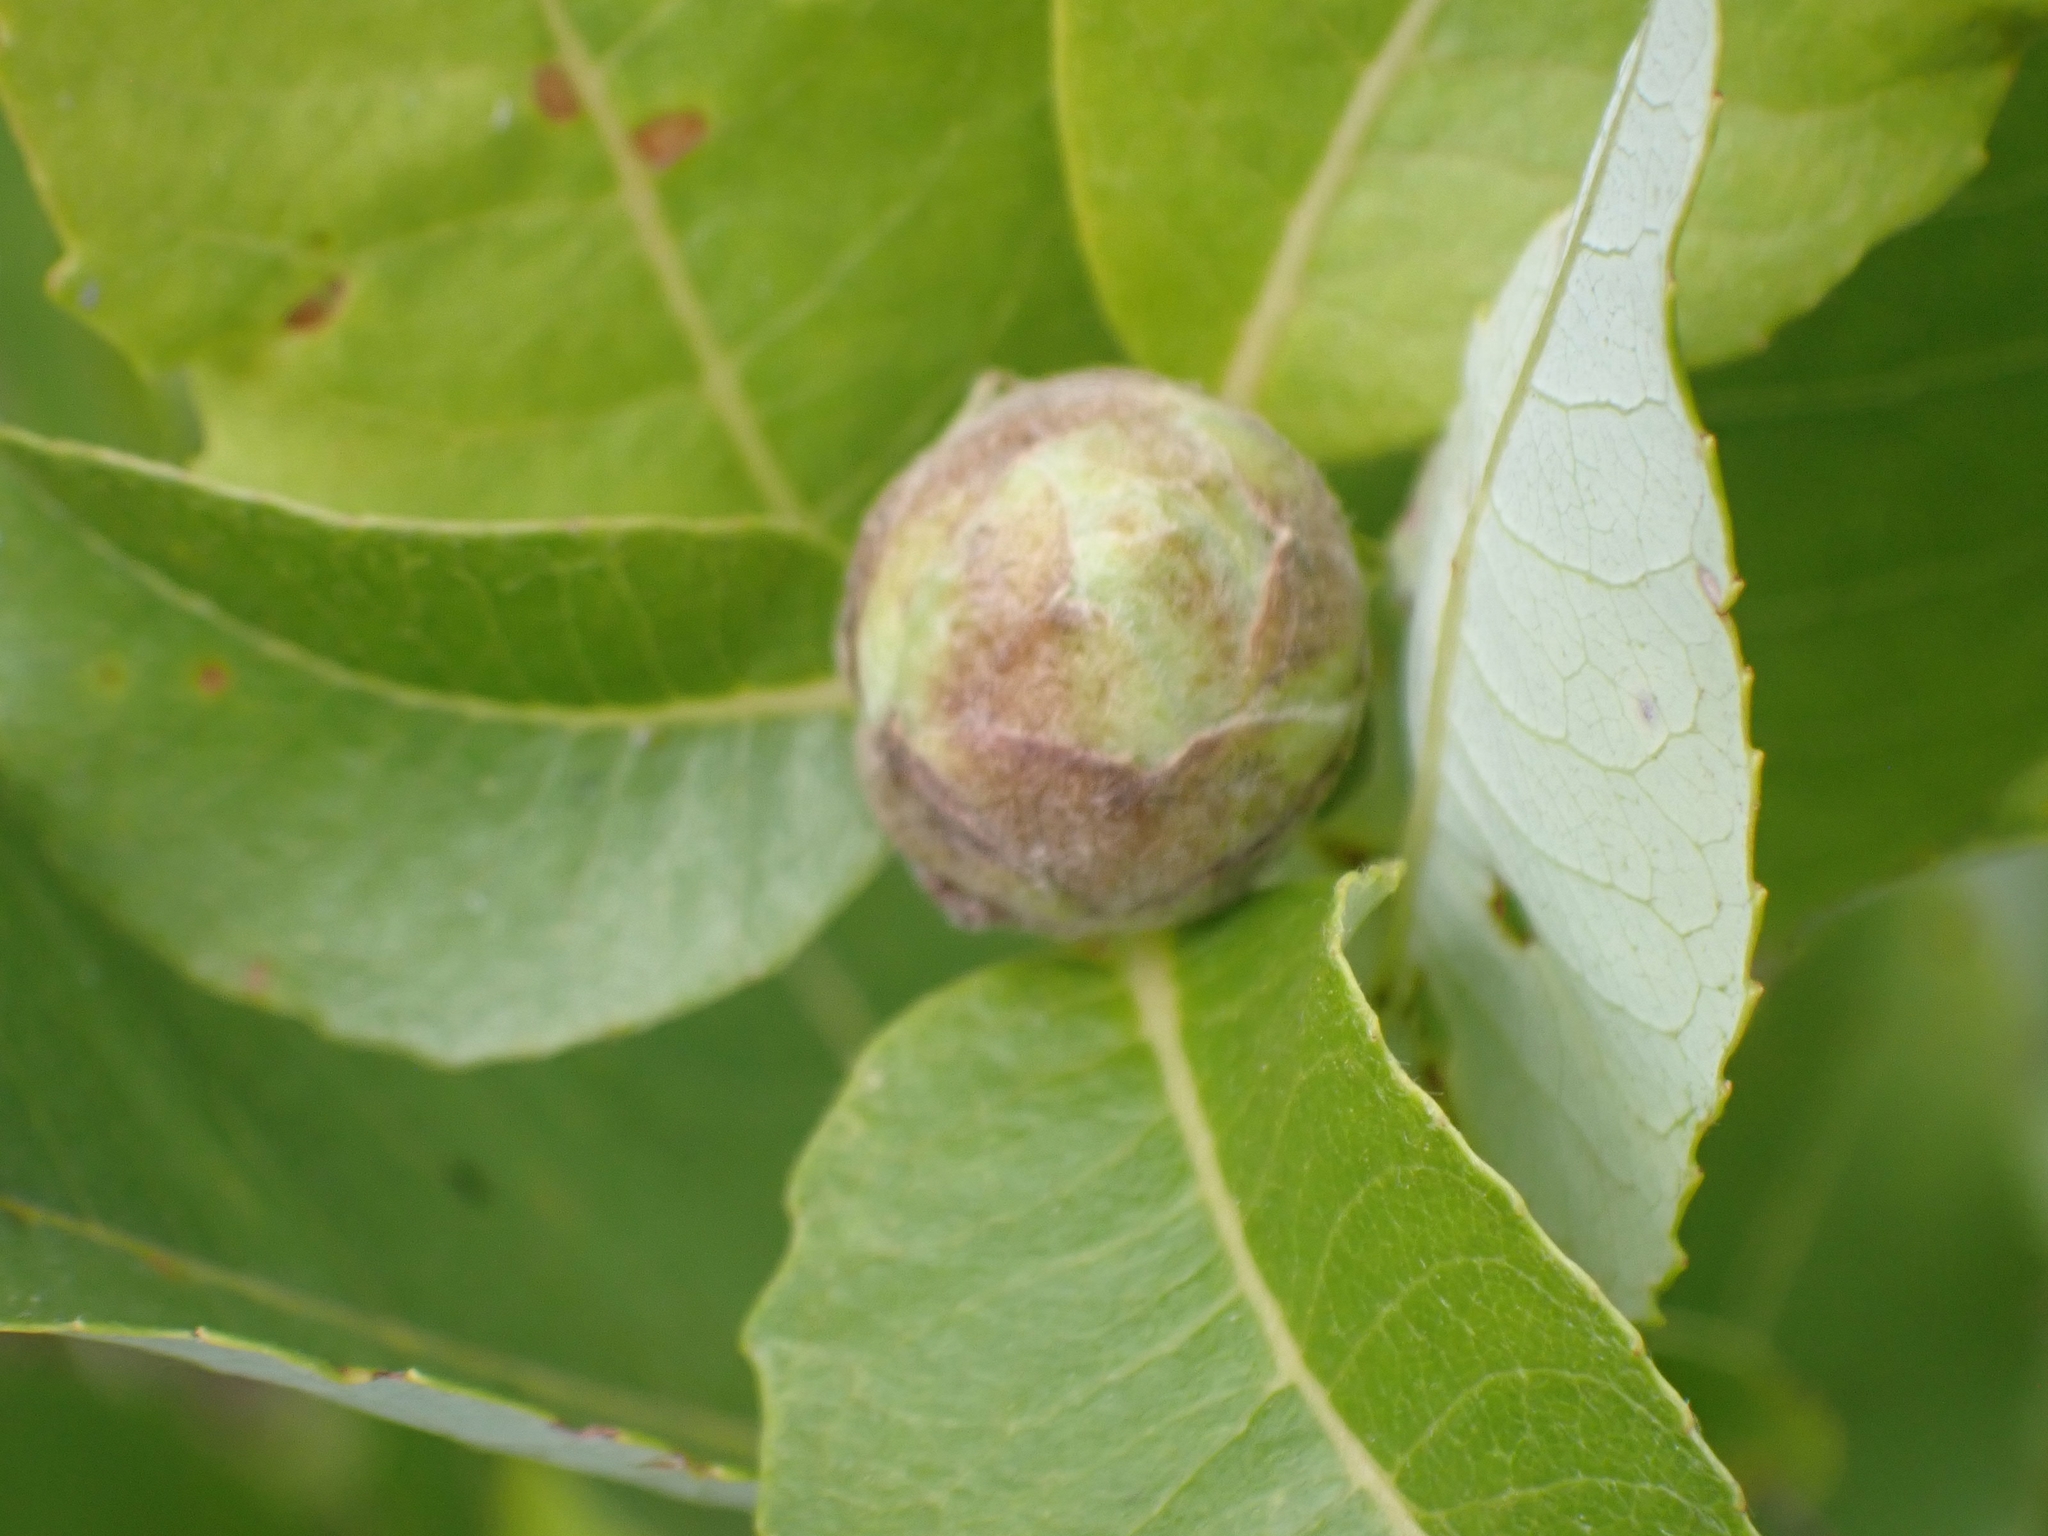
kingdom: Animalia
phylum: Arthropoda
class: Insecta
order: Diptera
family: Cecidomyiidae
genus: Rabdophaga
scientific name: Rabdophaga strobiloides
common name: Willow pinecone gall midge
